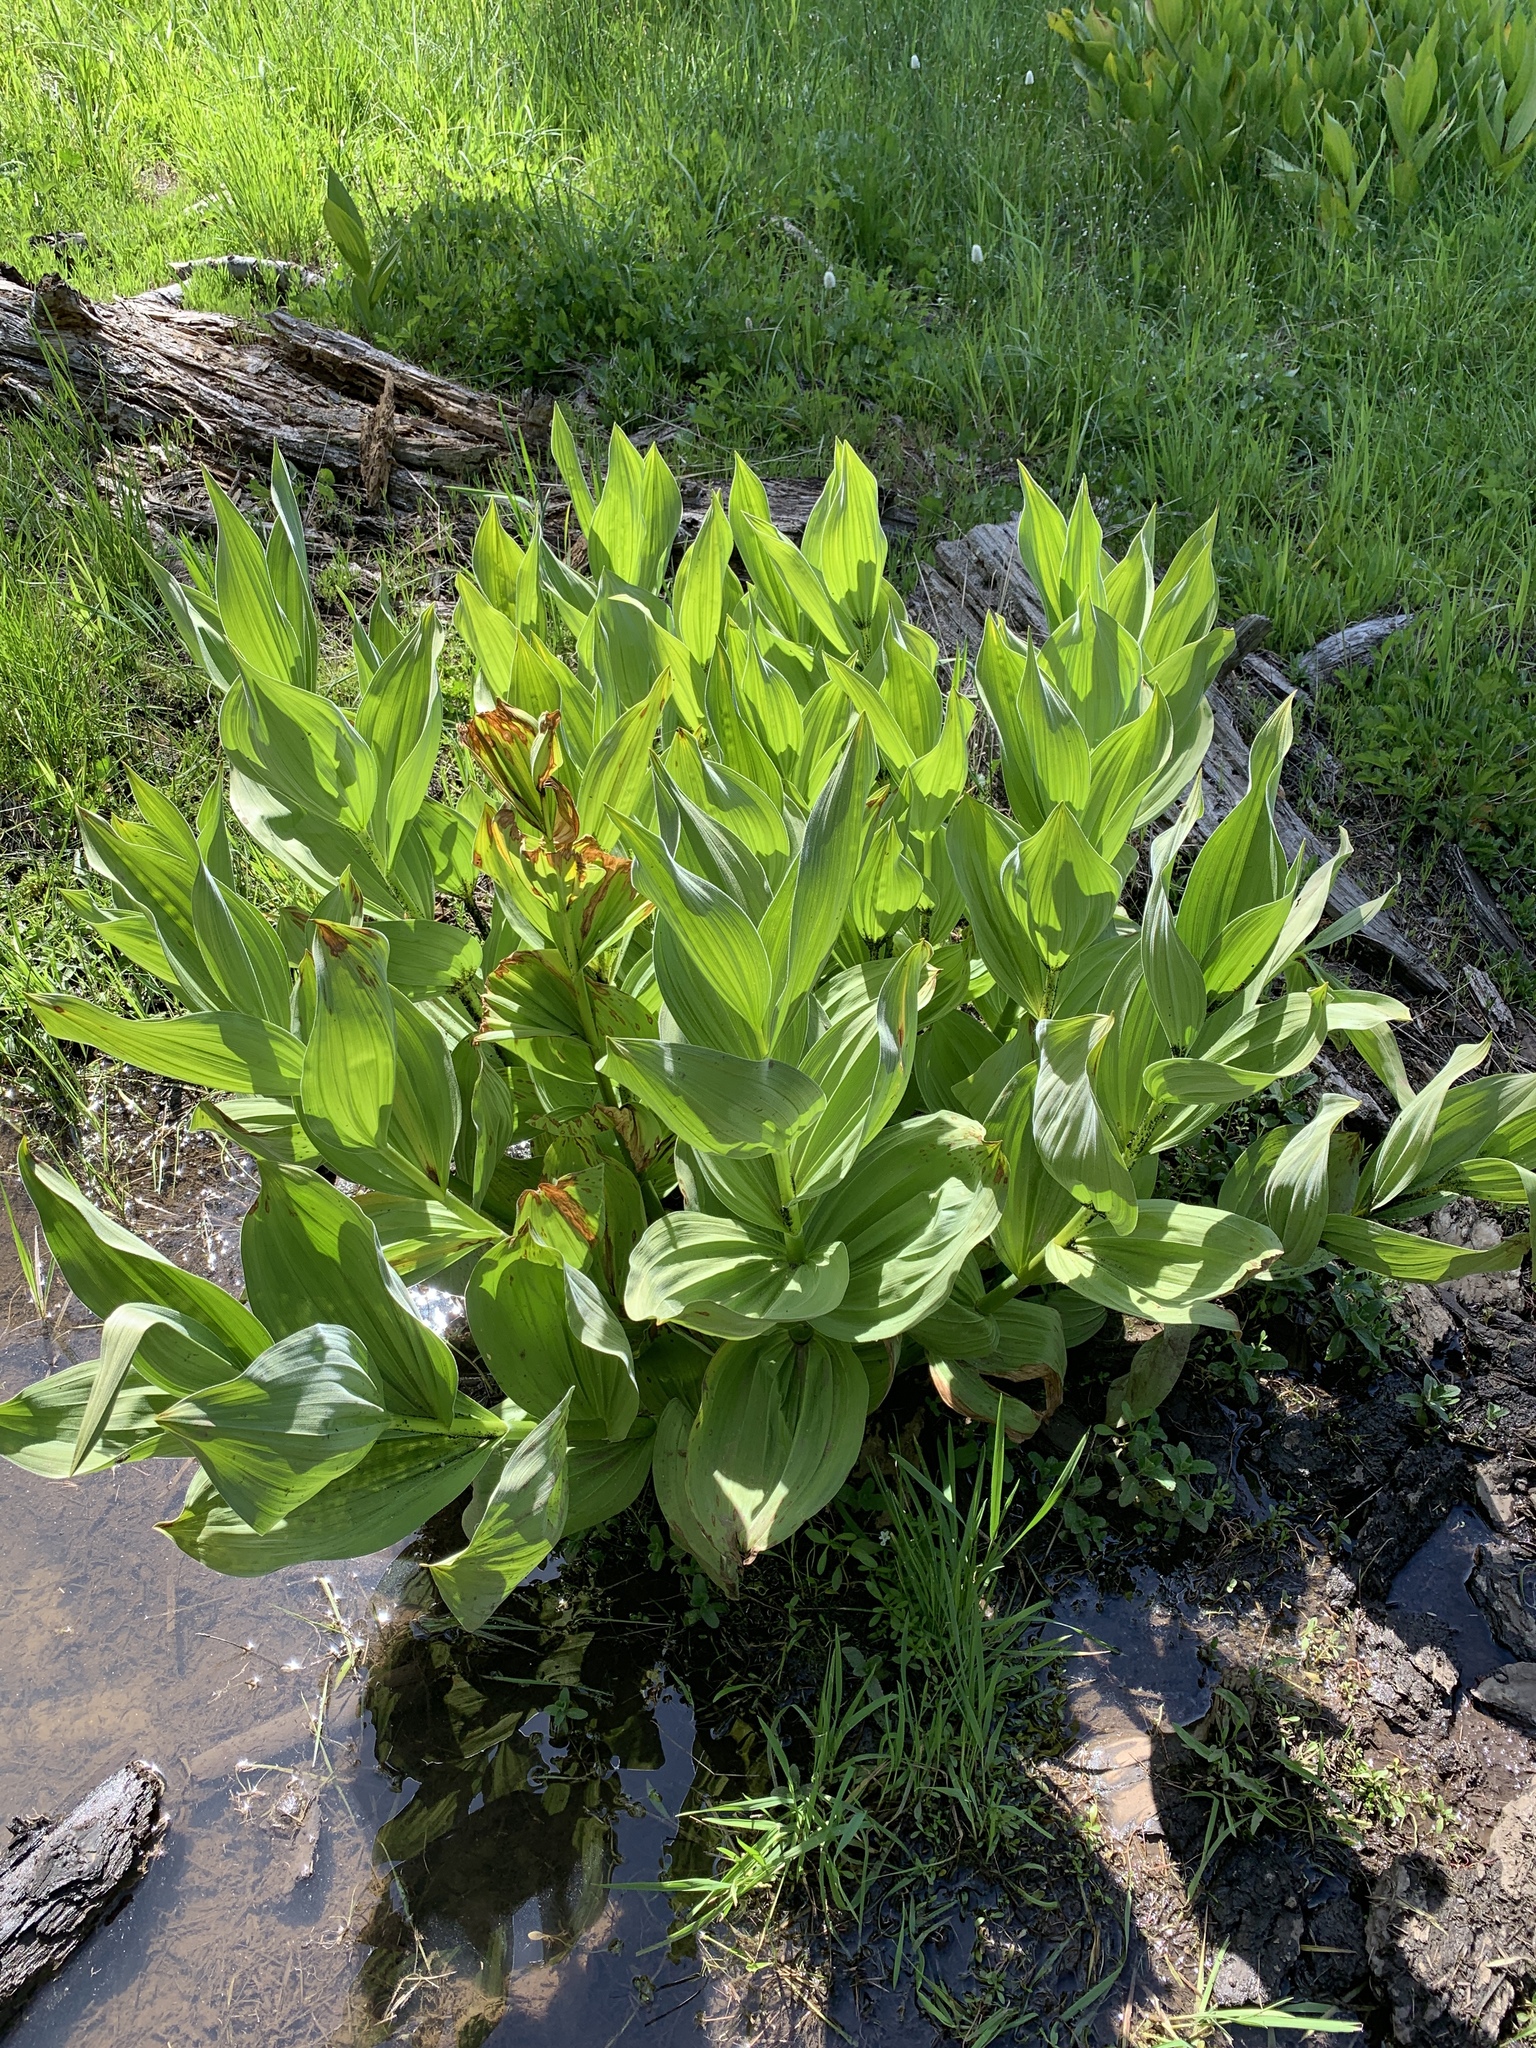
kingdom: Plantae
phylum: Tracheophyta
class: Liliopsida
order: Liliales
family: Melanthiaceae
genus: Veratrum
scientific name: Veratrum californicum
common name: California veratrum
